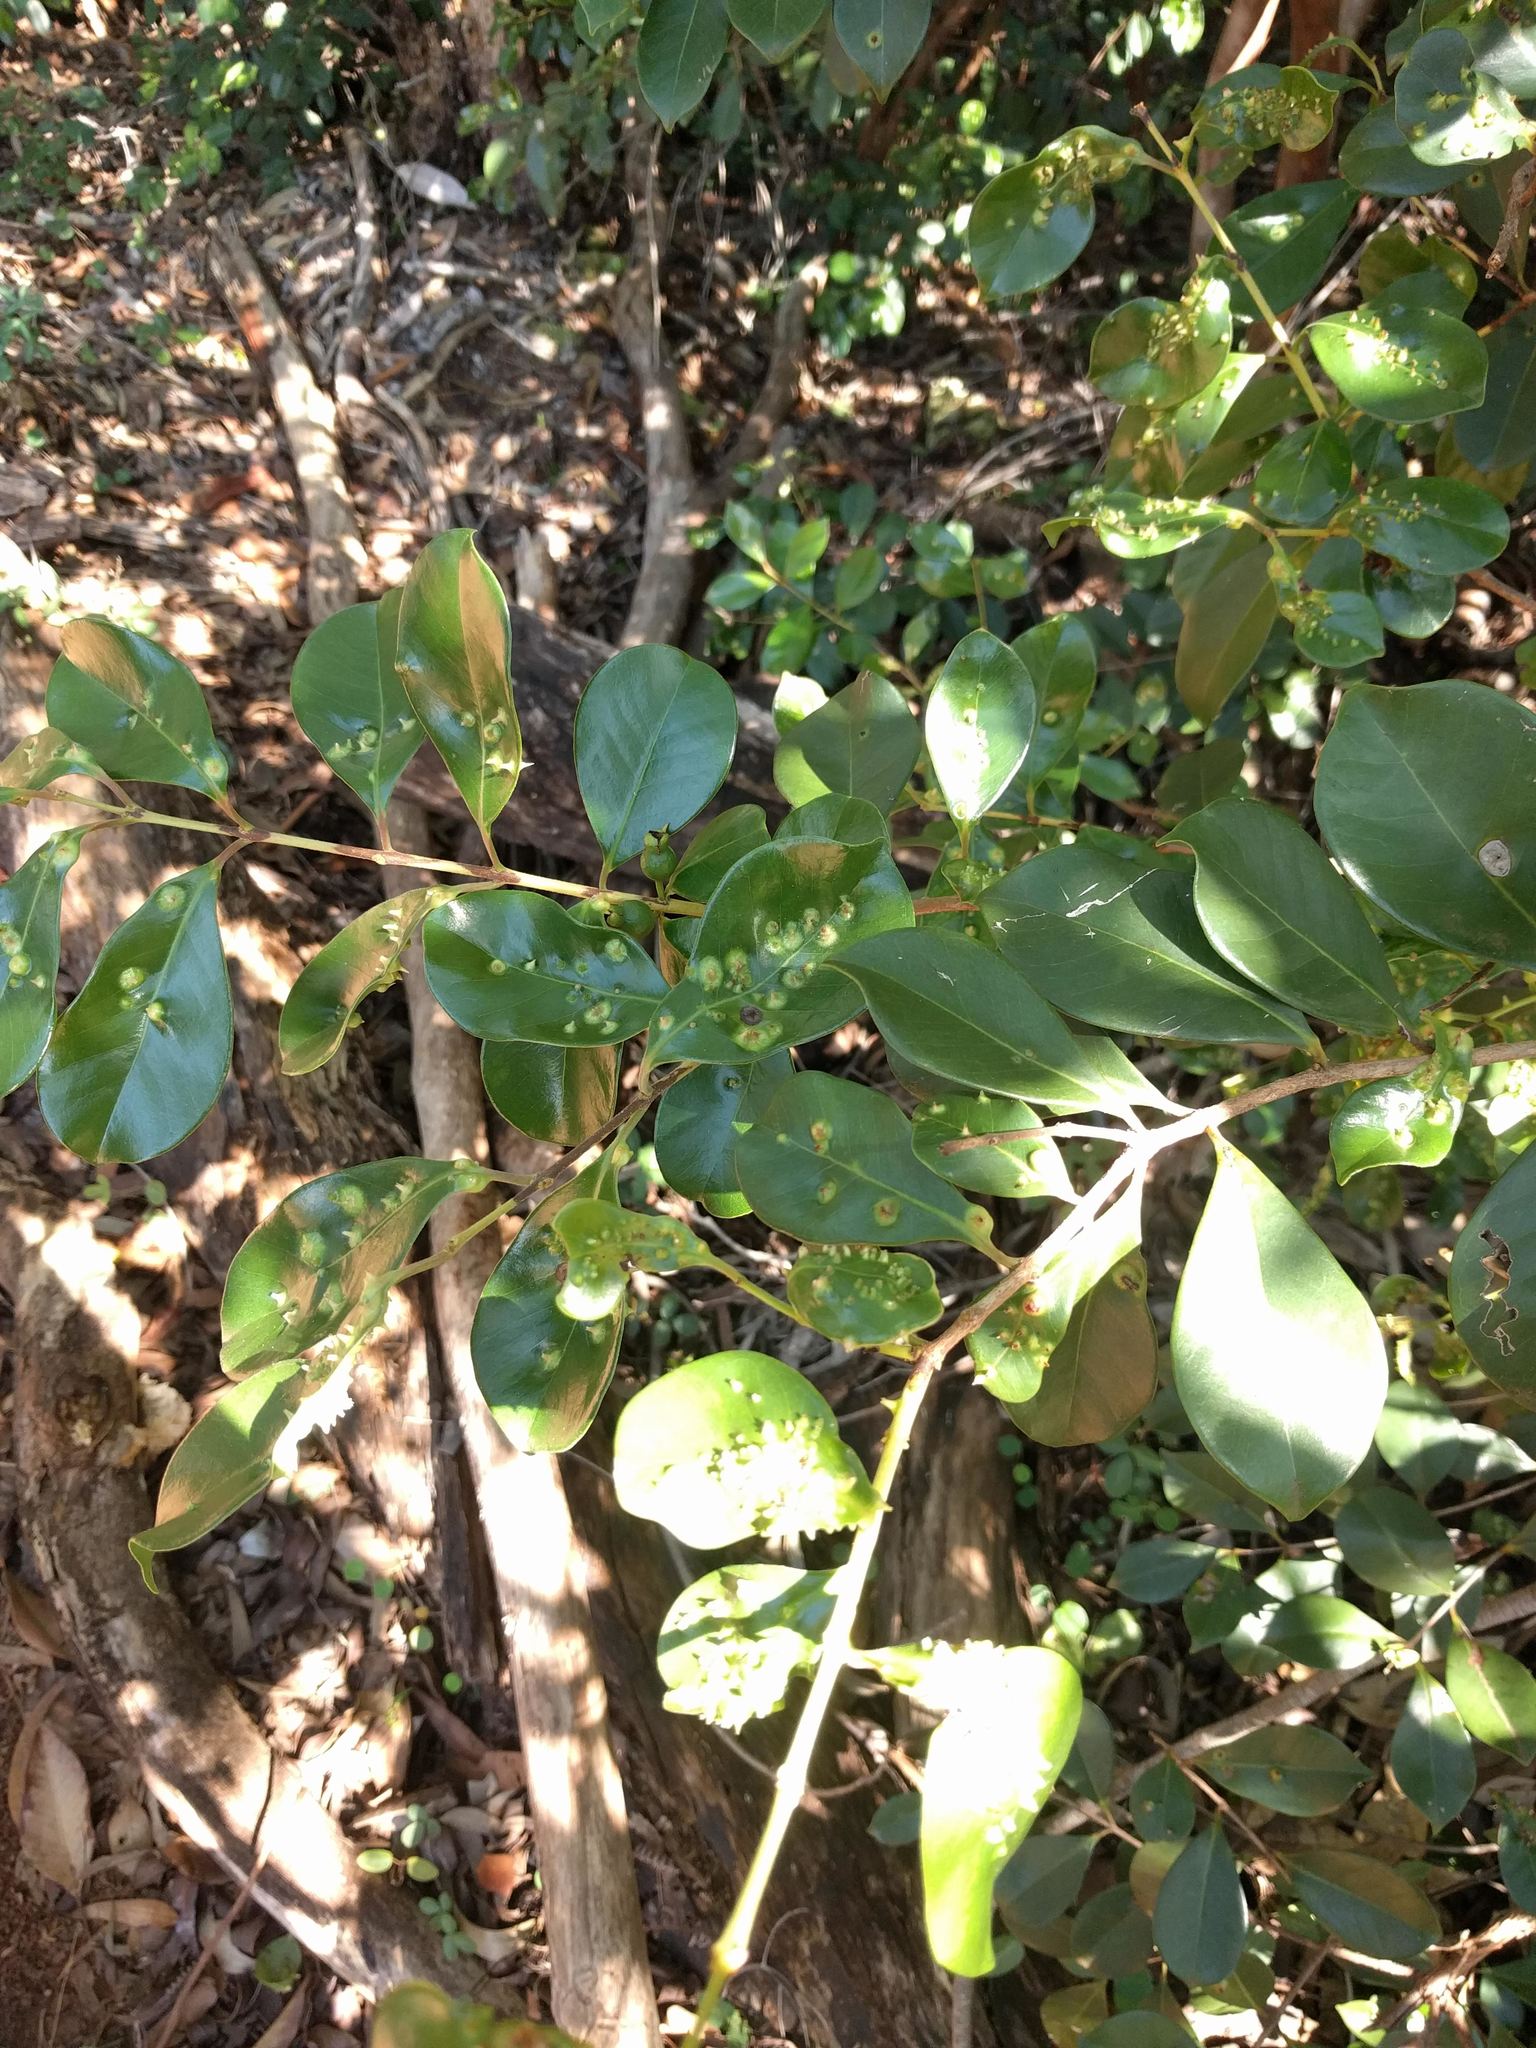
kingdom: Animalia
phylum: Arthropoda
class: Insecta
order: Hemiptera
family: Eriococcidae
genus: Tectococcus
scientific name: Tectococcus ovatus
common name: Eriococcid scale
